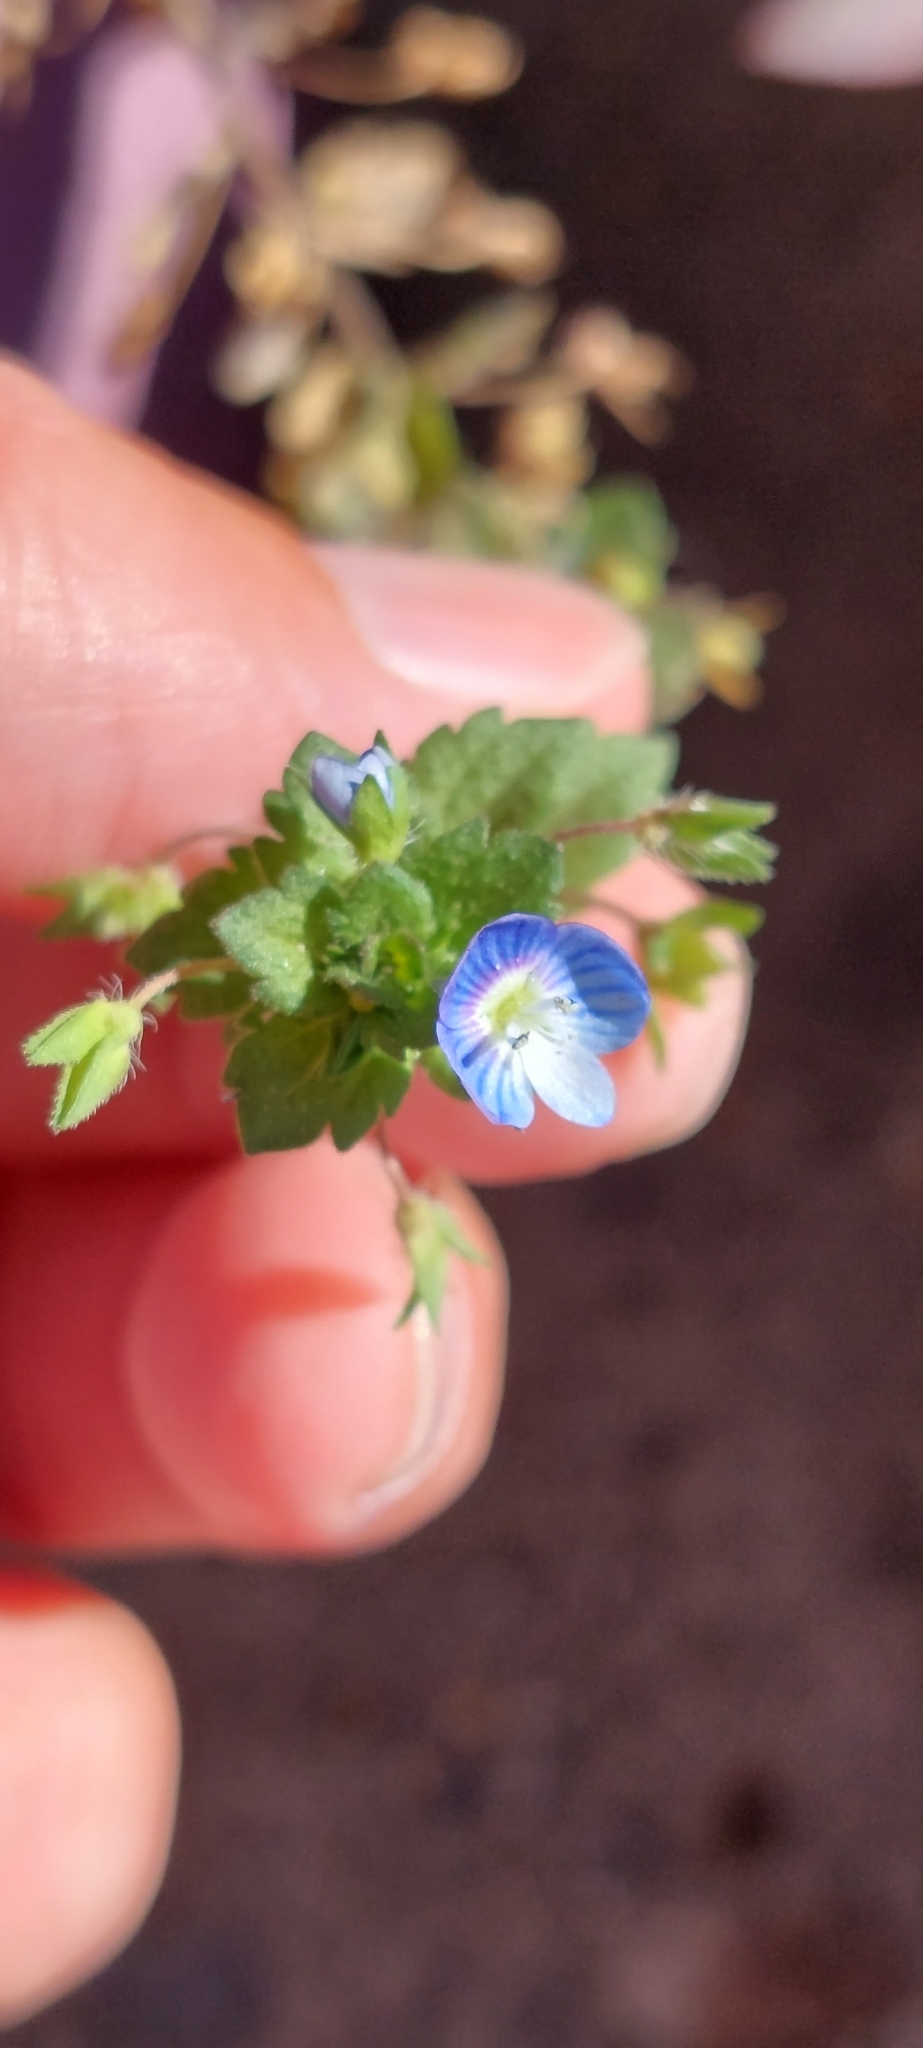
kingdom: Plantae
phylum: Tracheophyta
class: Magnoliopsida
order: Lamiales
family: Plantaginaceae
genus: Veronica
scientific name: Veronica persica
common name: Common field-speedwell
